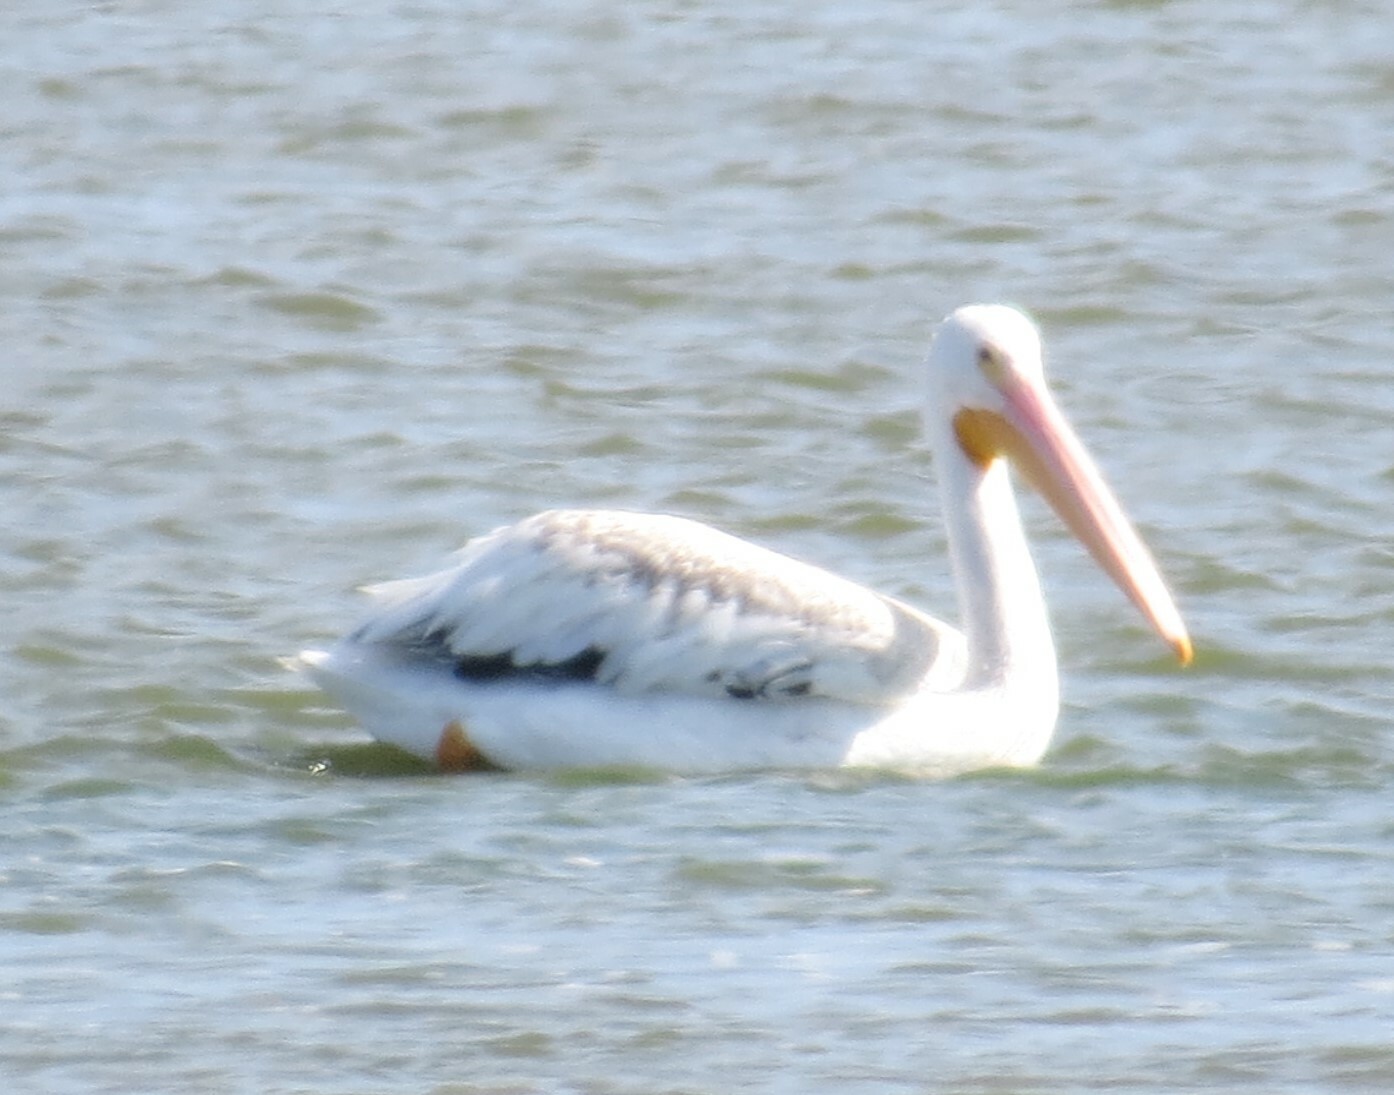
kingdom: Animalia
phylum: Chordata
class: Aves
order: Pelecaniformes
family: Pelecanidae
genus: Pelecanus
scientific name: Pelecanus erythrorhynchos
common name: American white pelican
